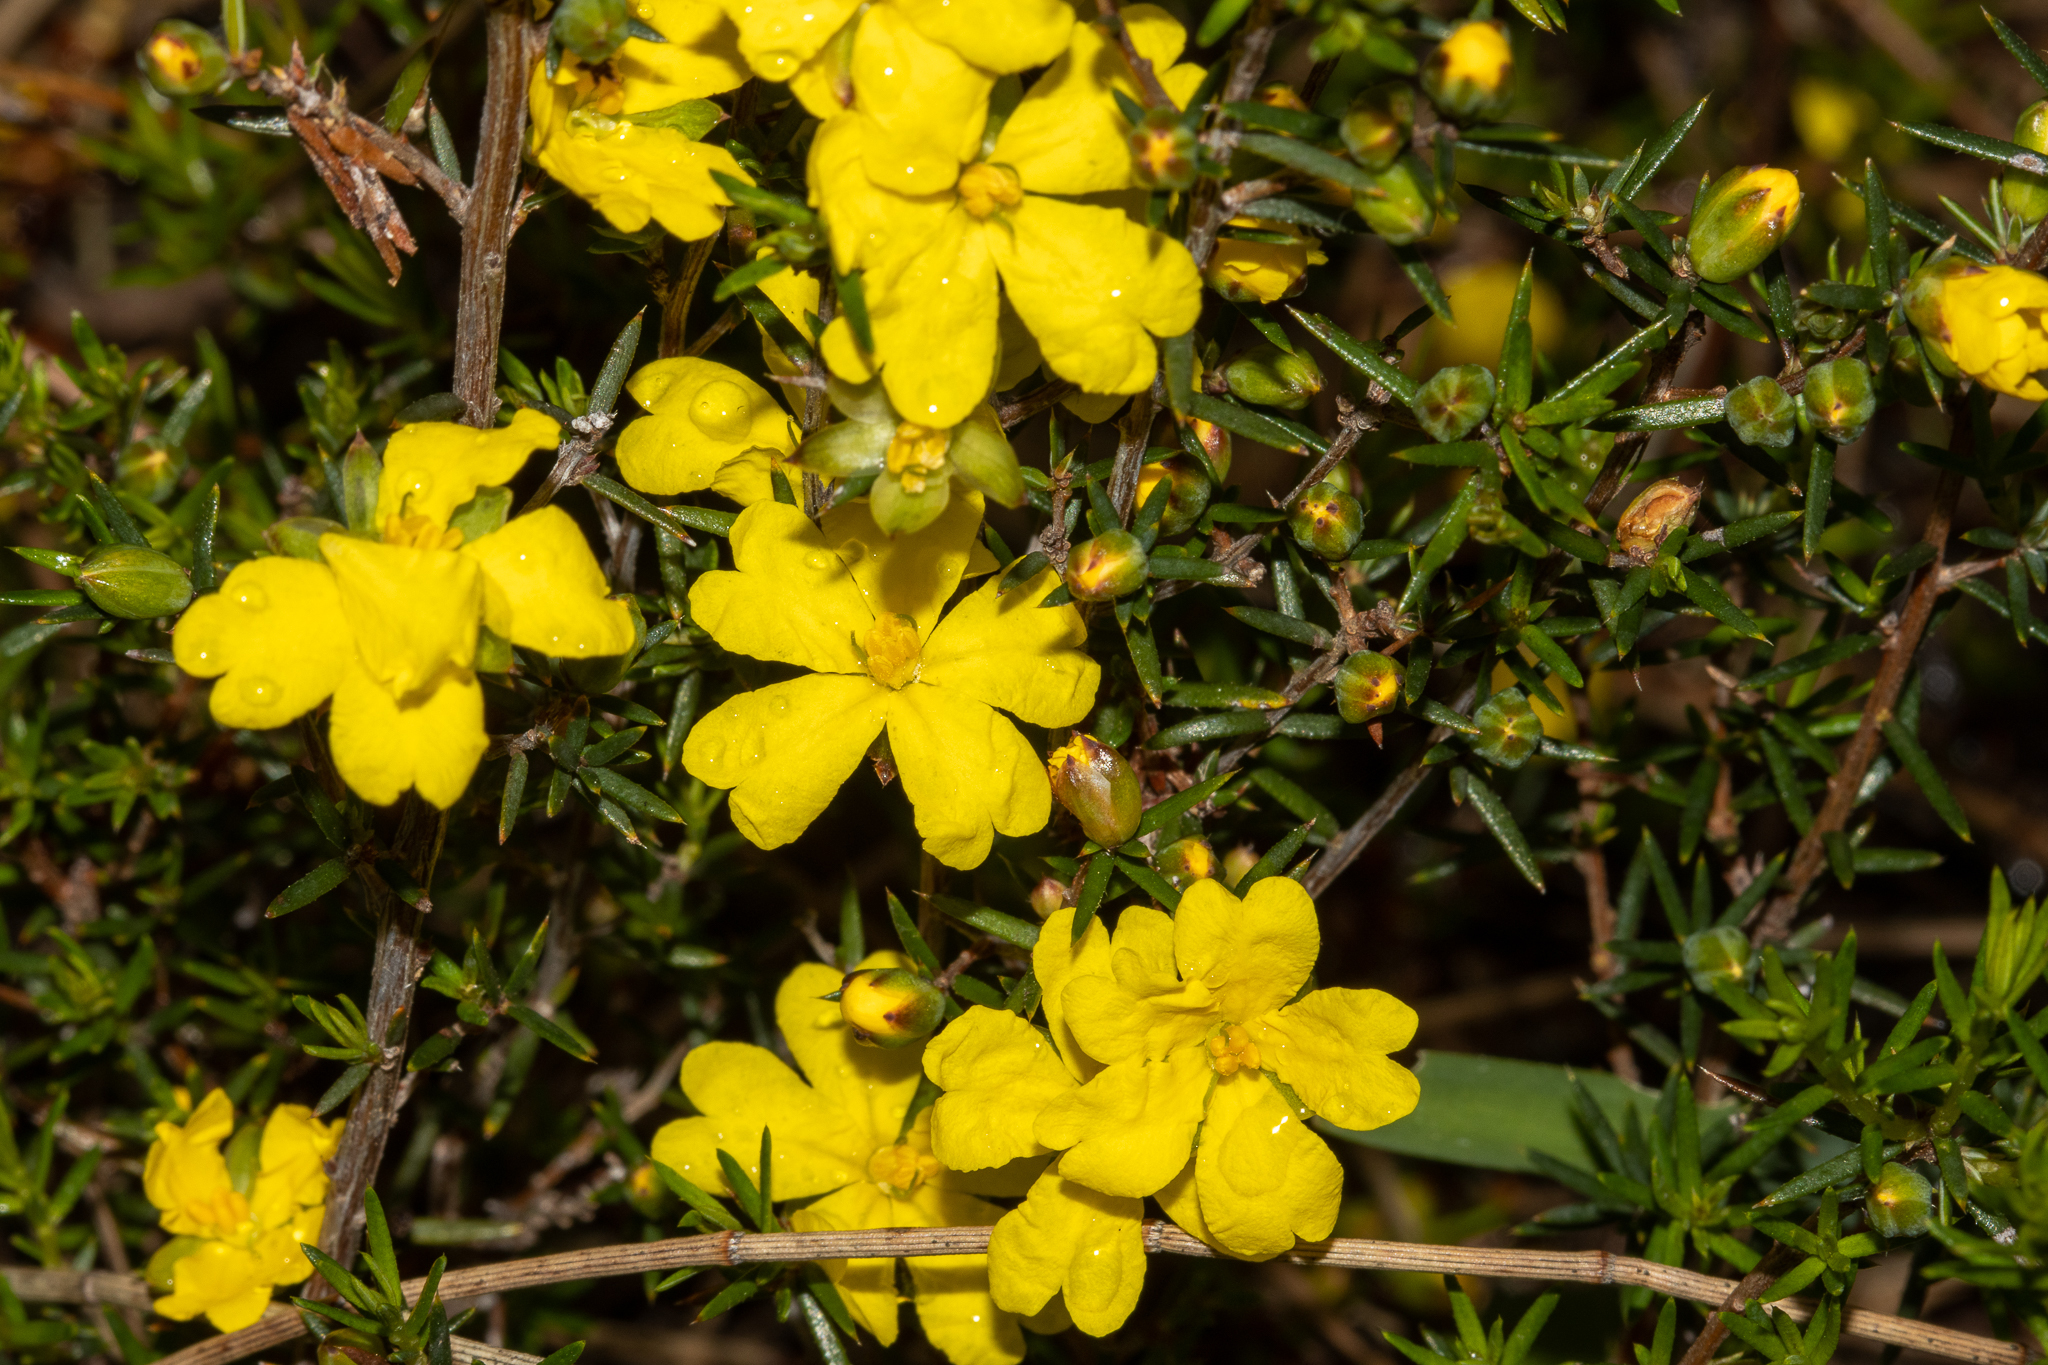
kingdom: Plantae
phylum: Tracheophyta
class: Magnoliopsida
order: Dilleniales
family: Dilleniaceae
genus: Hibbertia
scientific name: Hibbertia exutiacies
